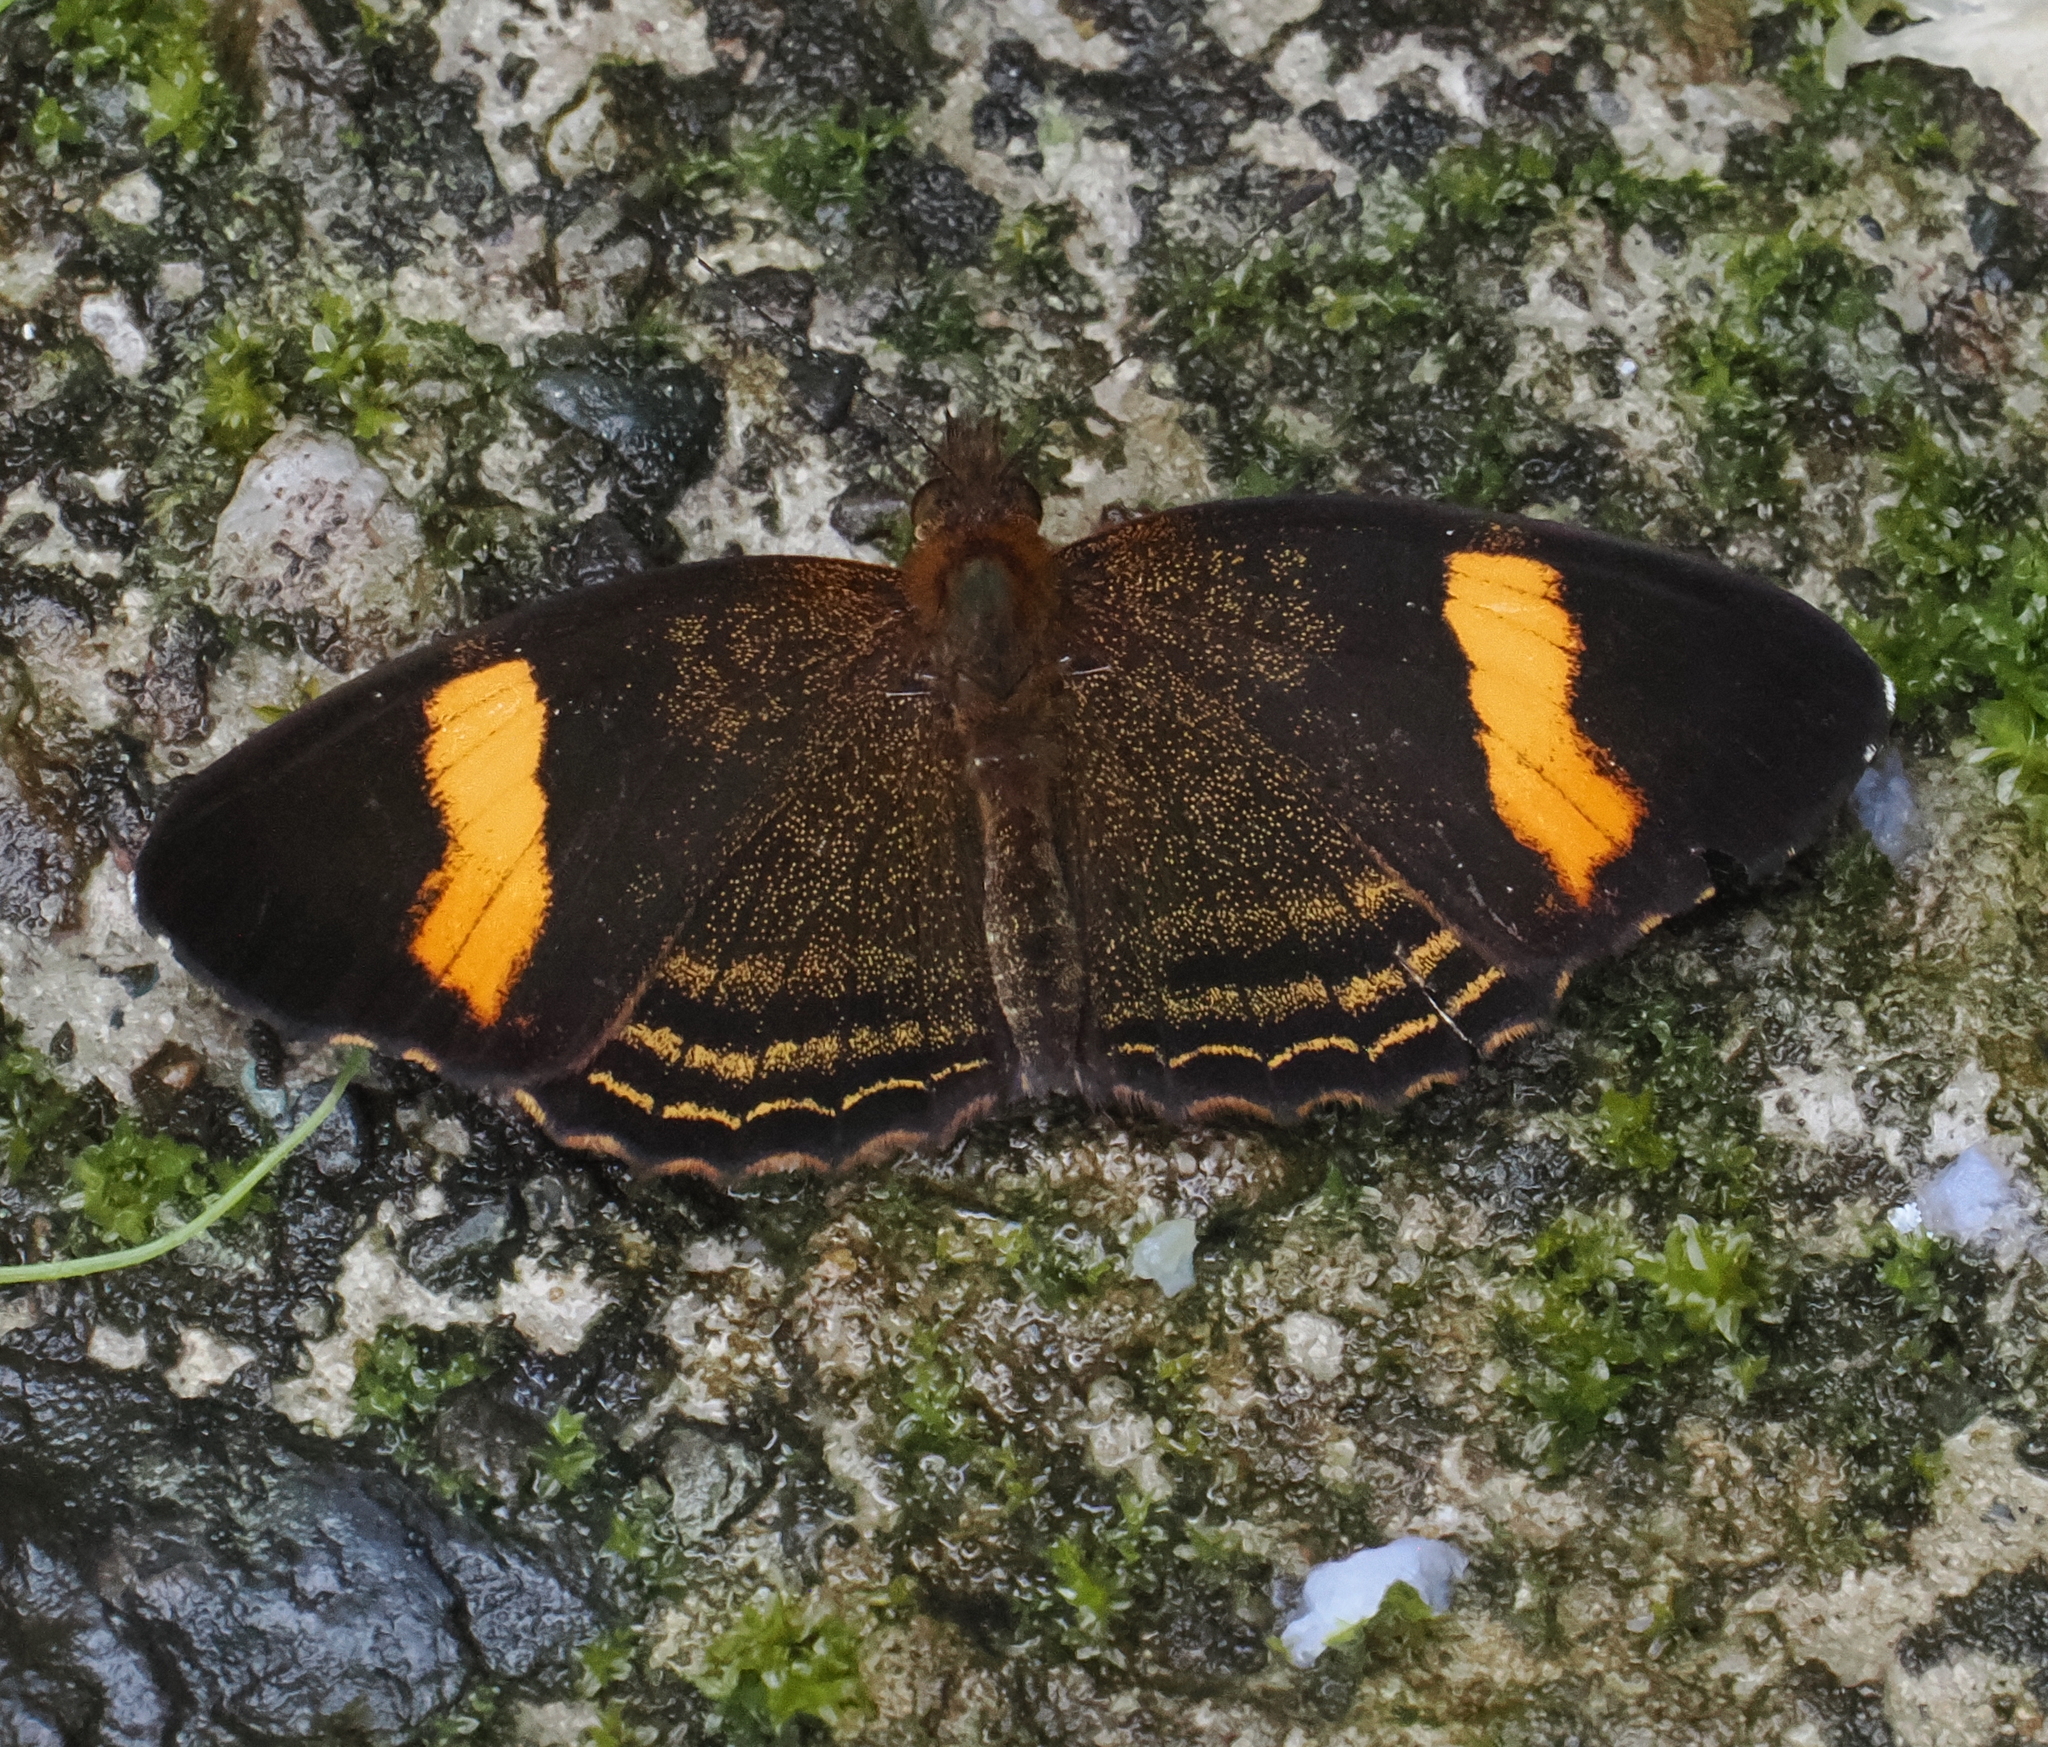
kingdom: Animalia
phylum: Arthropoda
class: Insecta
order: Lepidoptera
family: Nymphalidae
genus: Telenassa
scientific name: Telenassa jana
